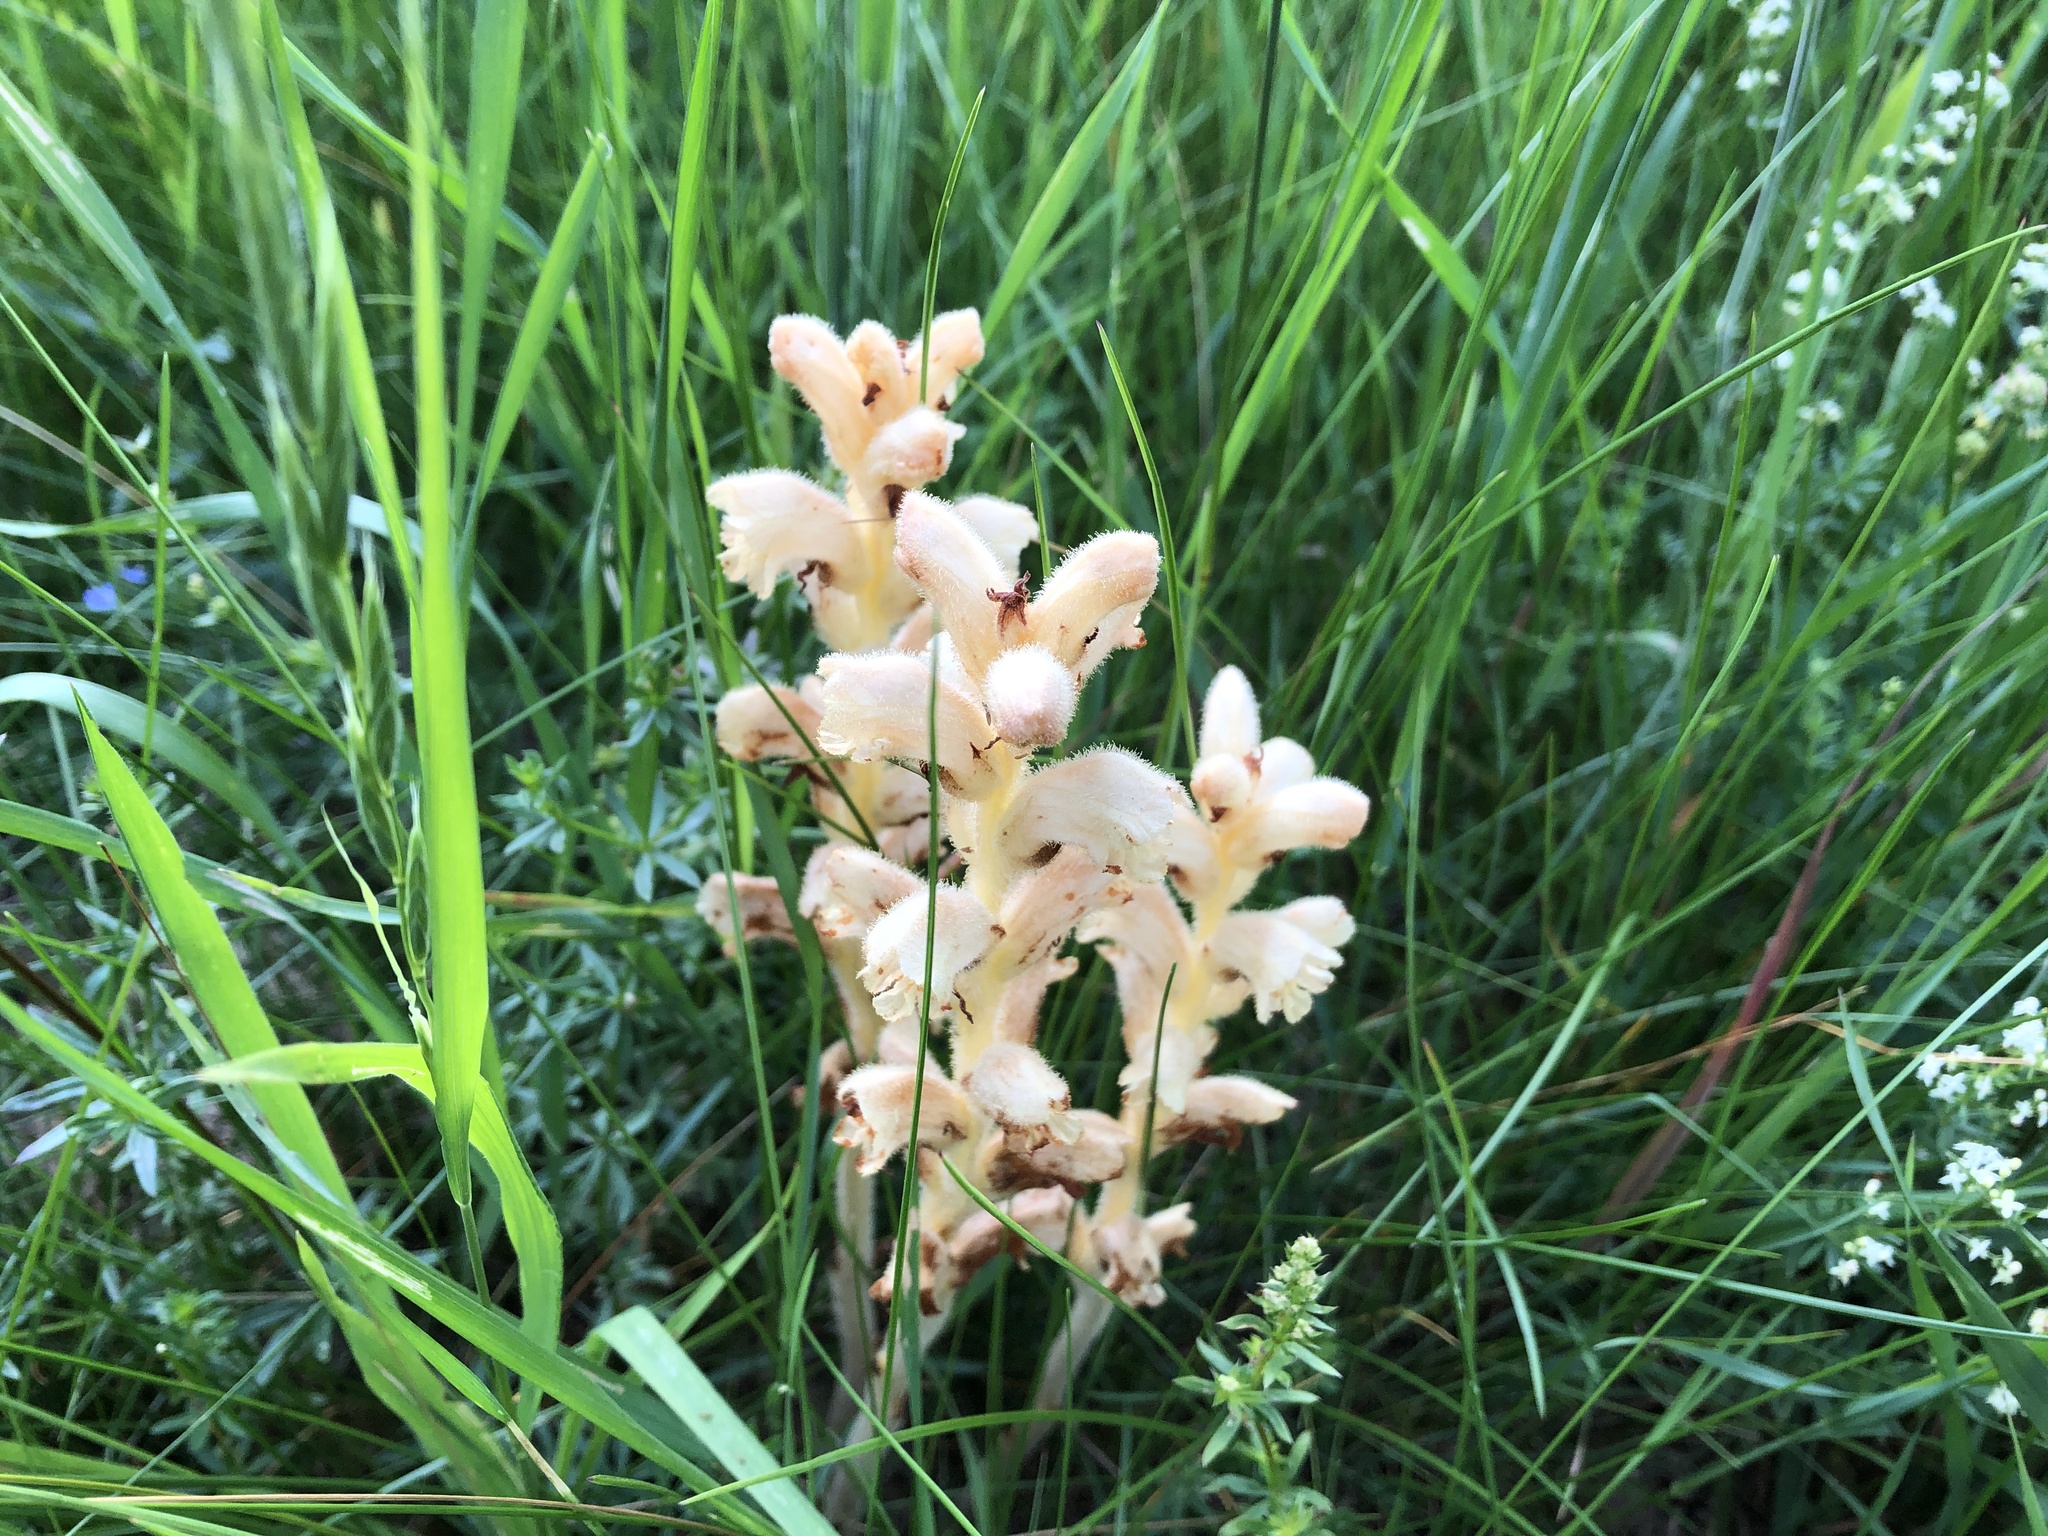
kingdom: Plantae
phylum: Tracheophyta
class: Magnoliopsida
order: Lamiales
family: Orobanchaceae
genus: Orobanche
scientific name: Orobanche caryophyllacea
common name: Bedstraw broomrape
